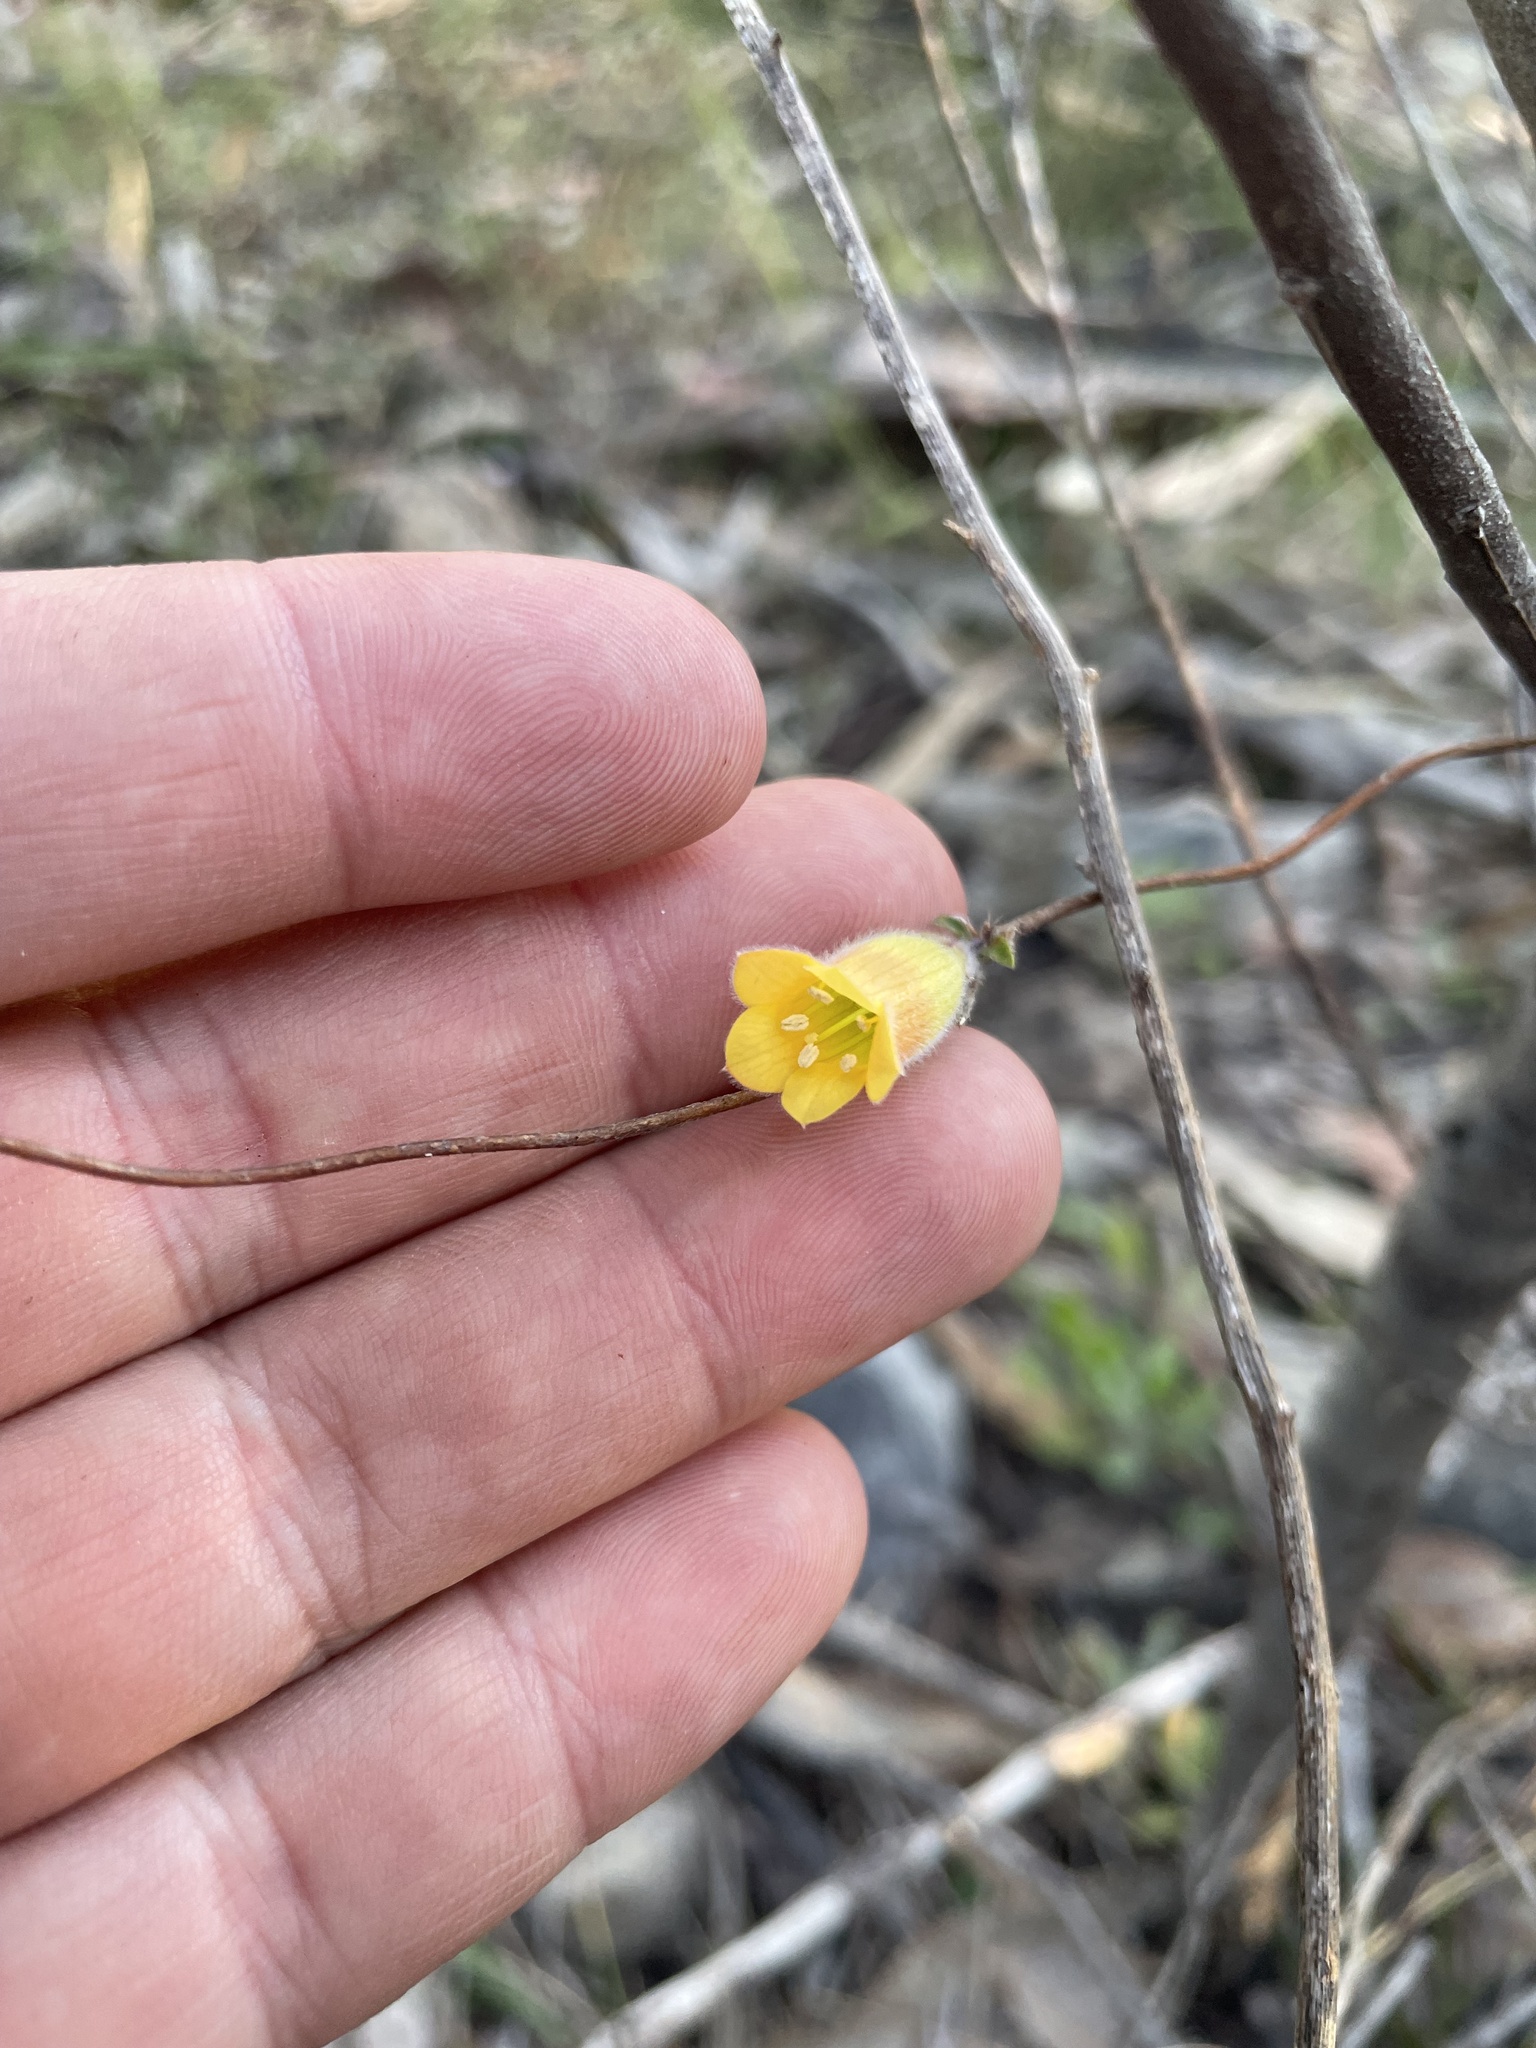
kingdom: Plantae
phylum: Tracheophyta
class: Magnoliopsida
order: Apiales
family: Pittosporaceae
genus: Marianthus
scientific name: Marianthus bignoniaceus
